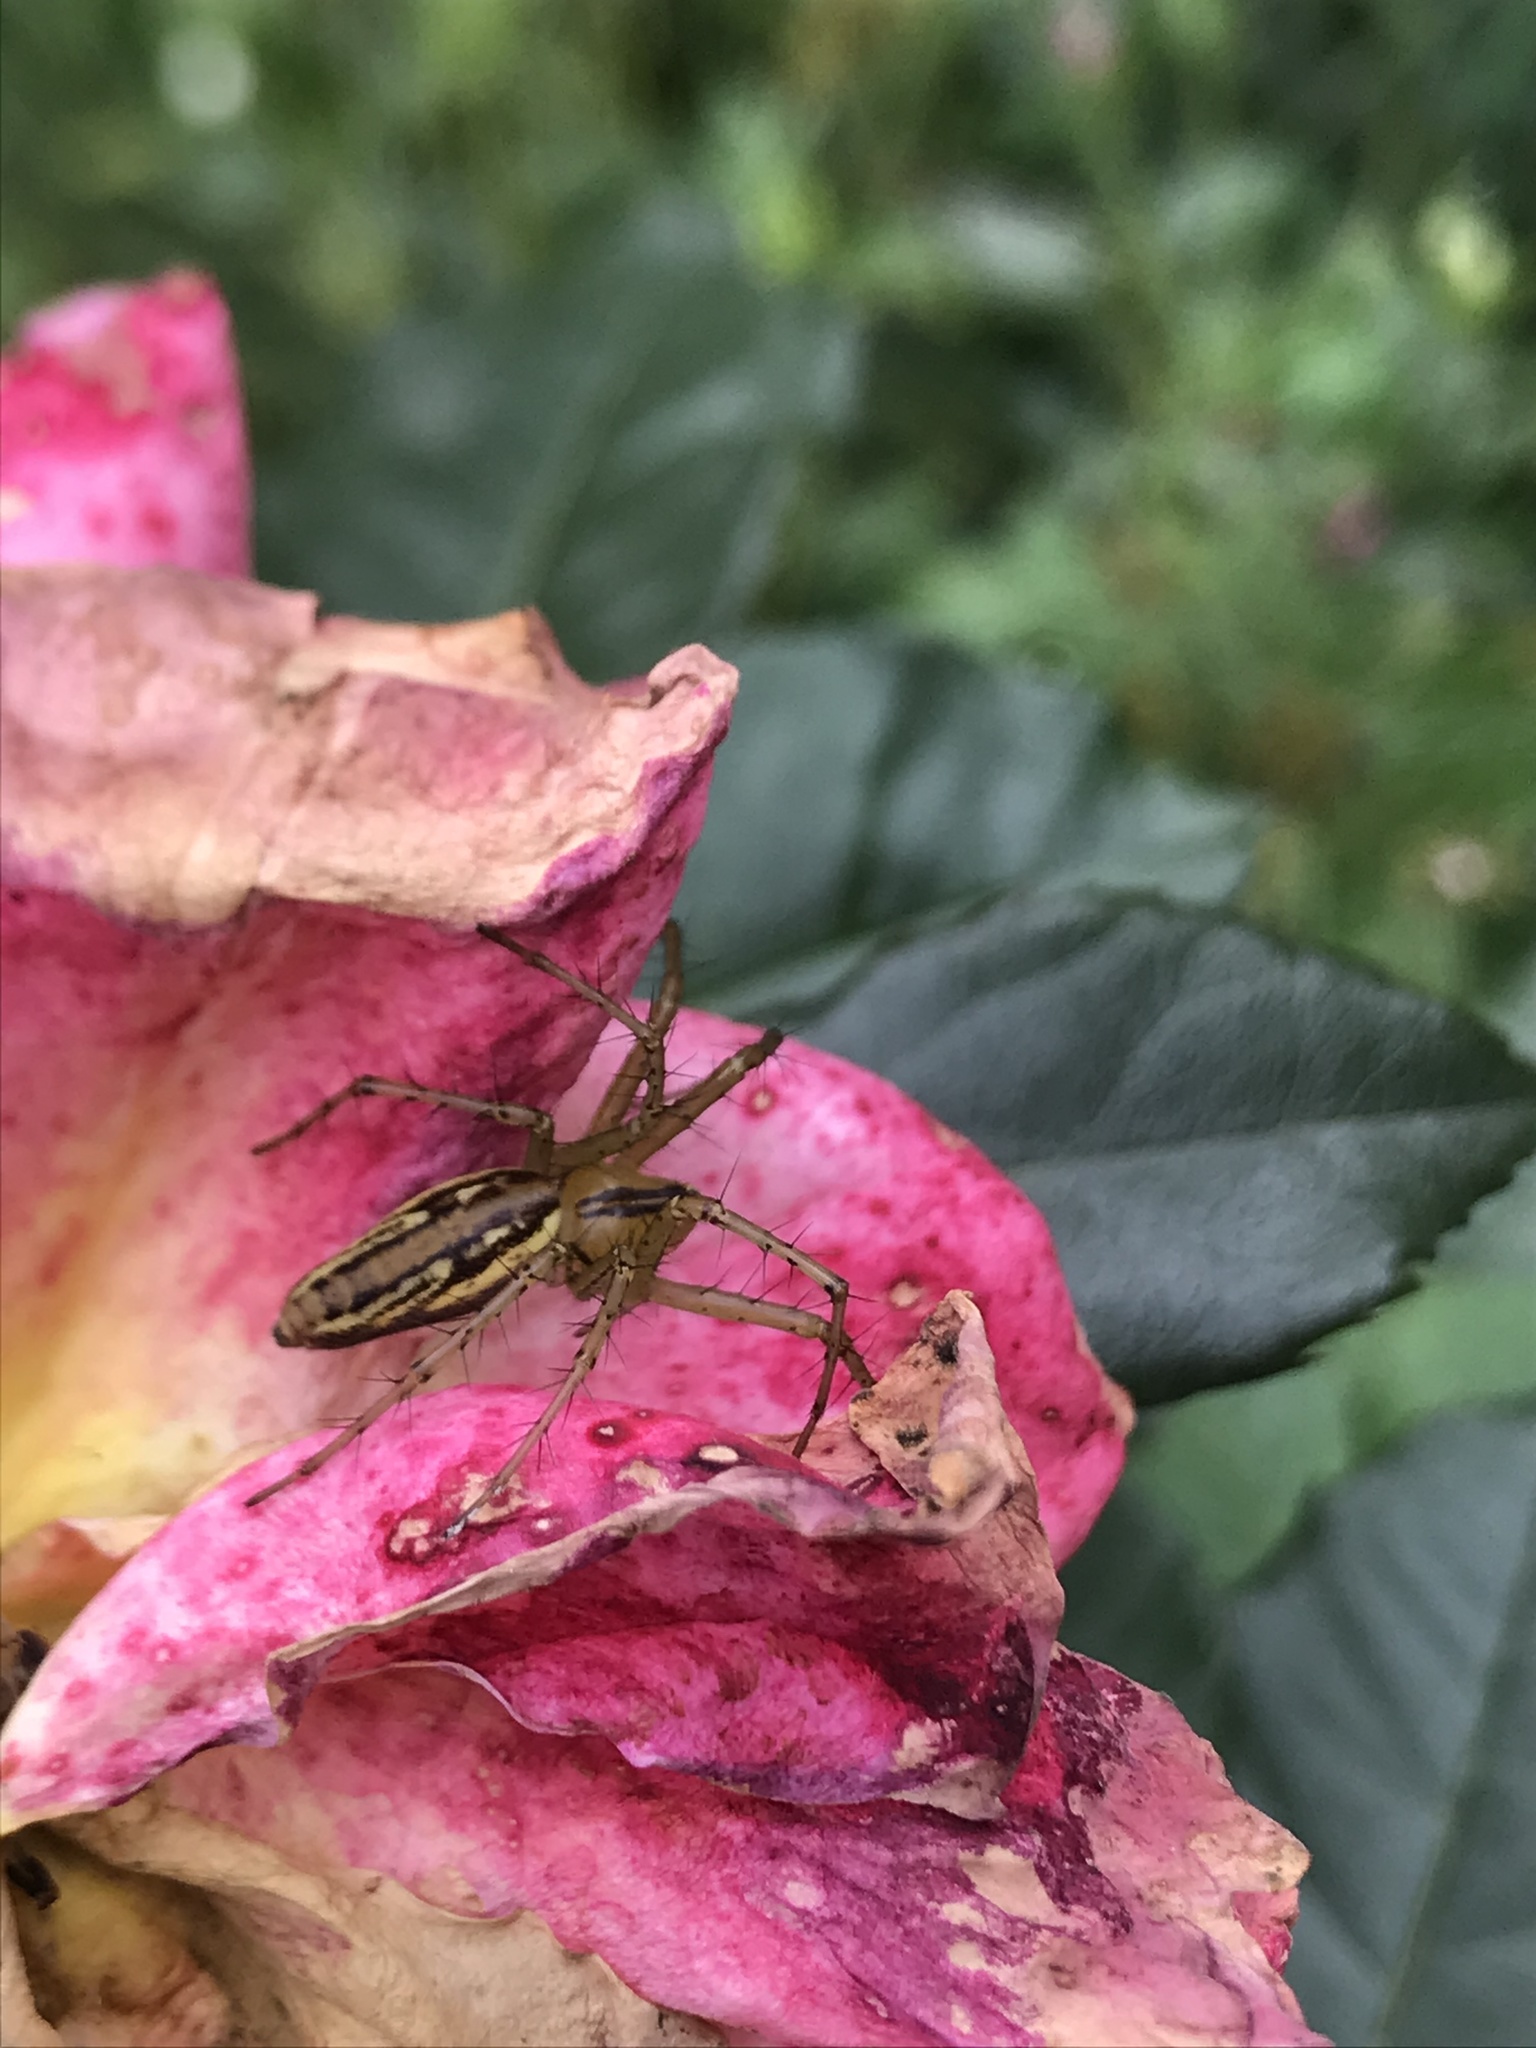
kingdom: Animalia
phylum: Arthropoda
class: Arachnida
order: Araneae
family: Oxyopidae
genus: Peucetia
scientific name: Peucetia rubrolineata
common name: Lynx spiders
